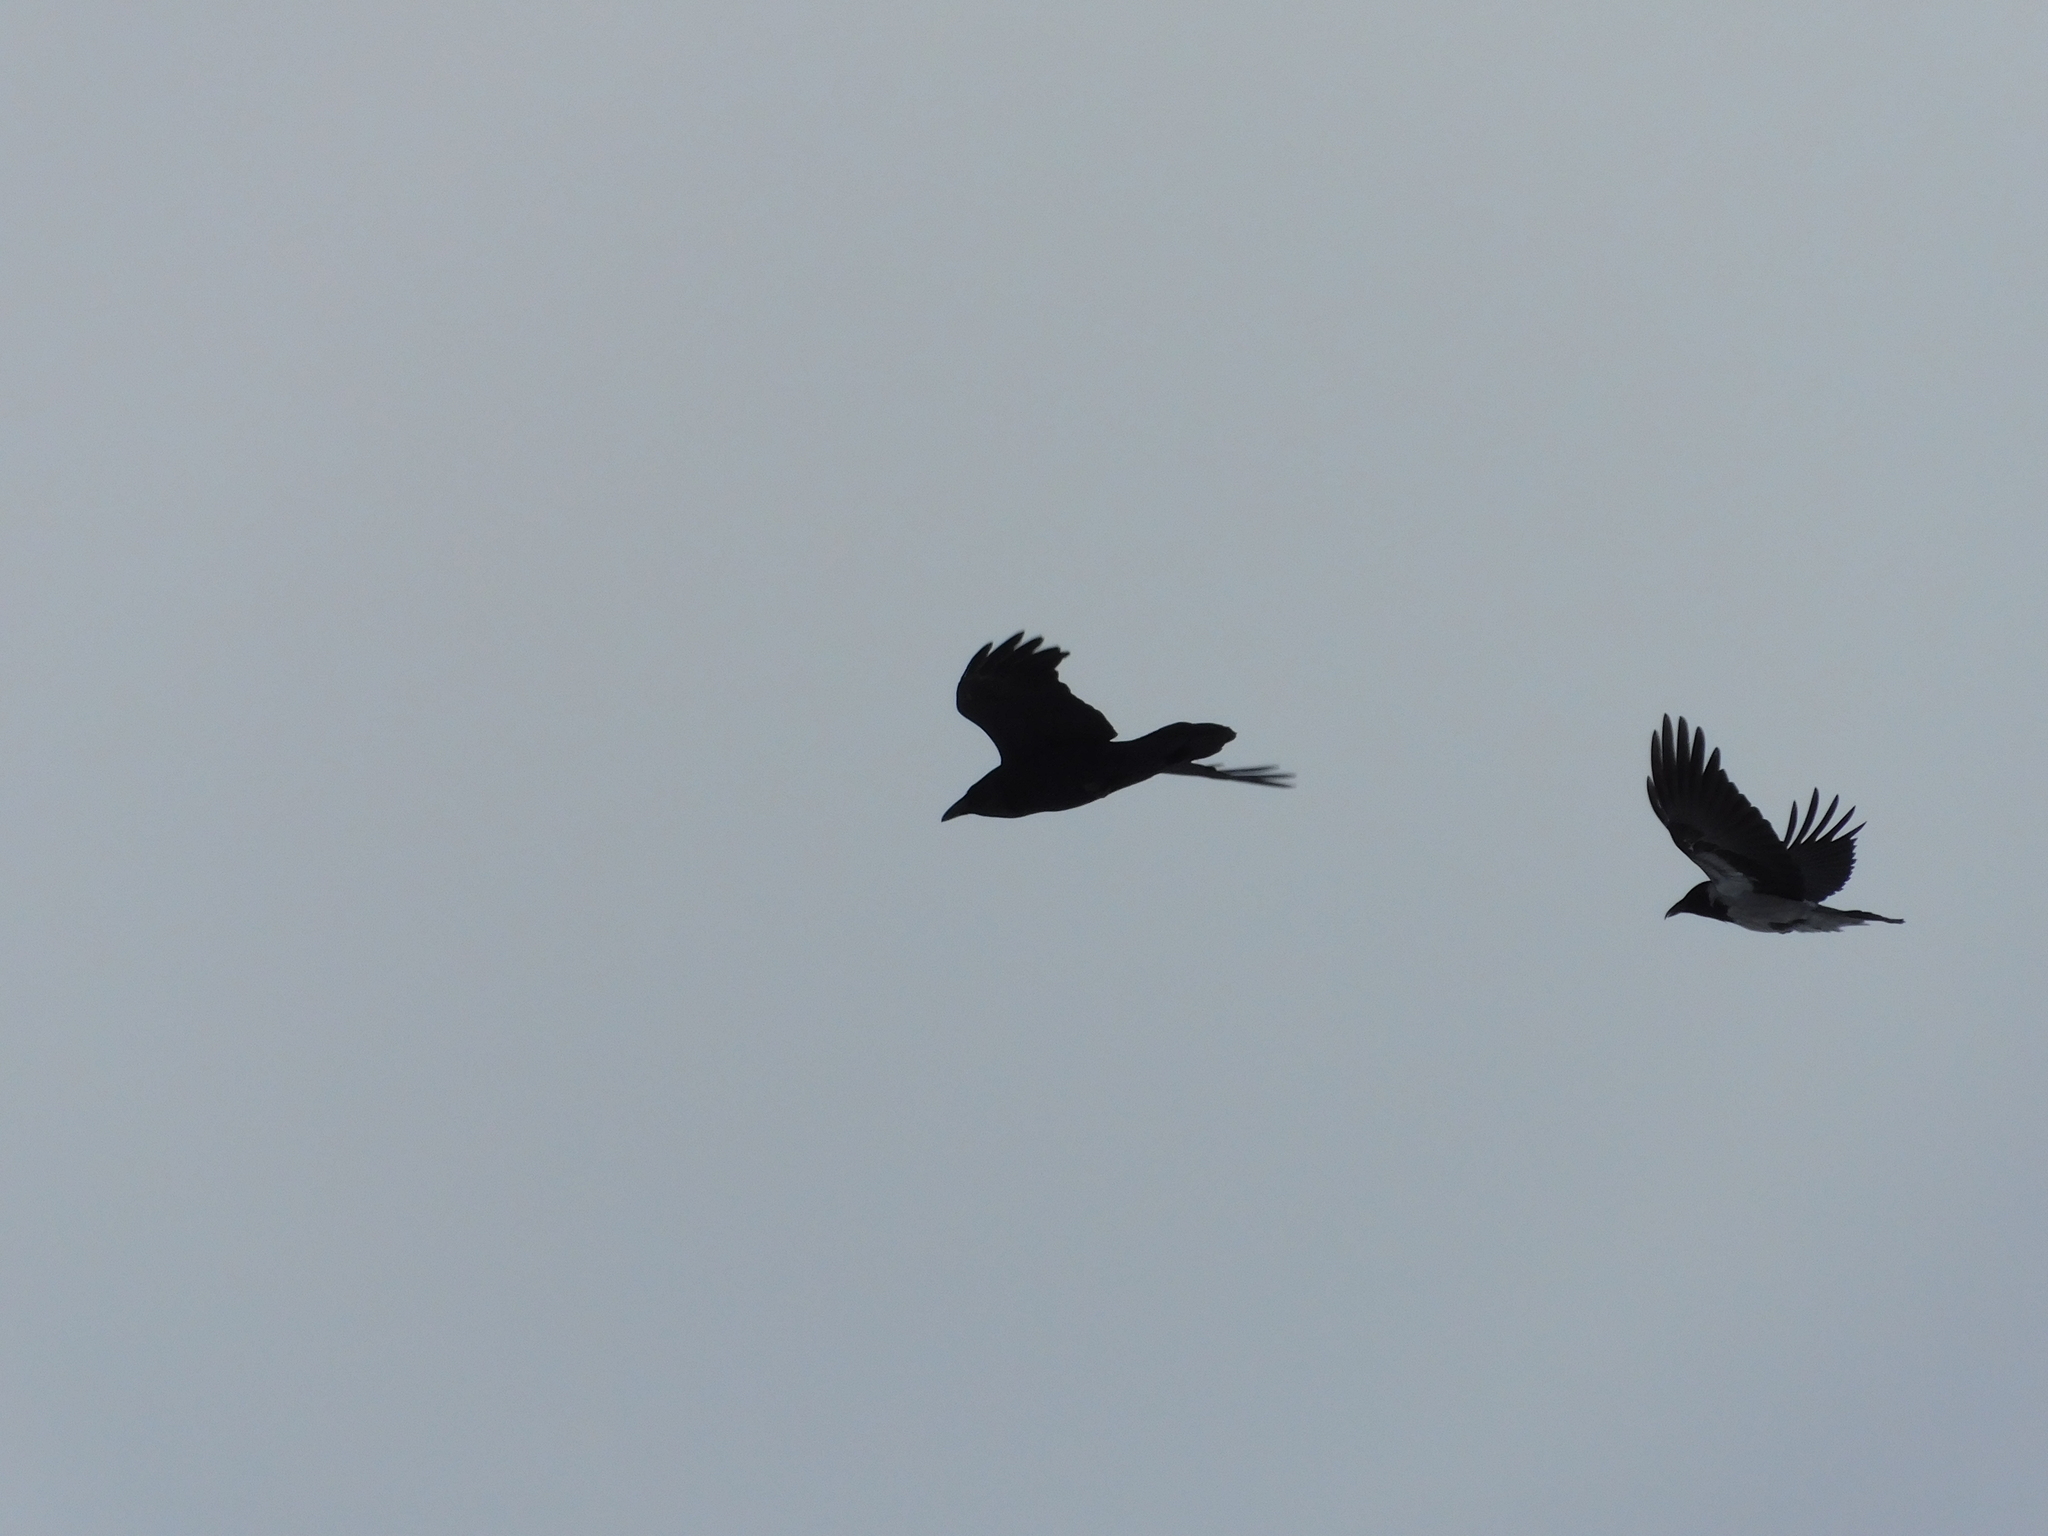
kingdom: Animalia
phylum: Chordata
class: Aves
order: Passeriformes
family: Corvidae
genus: Corvus
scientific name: Corvus corax
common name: Common raven
